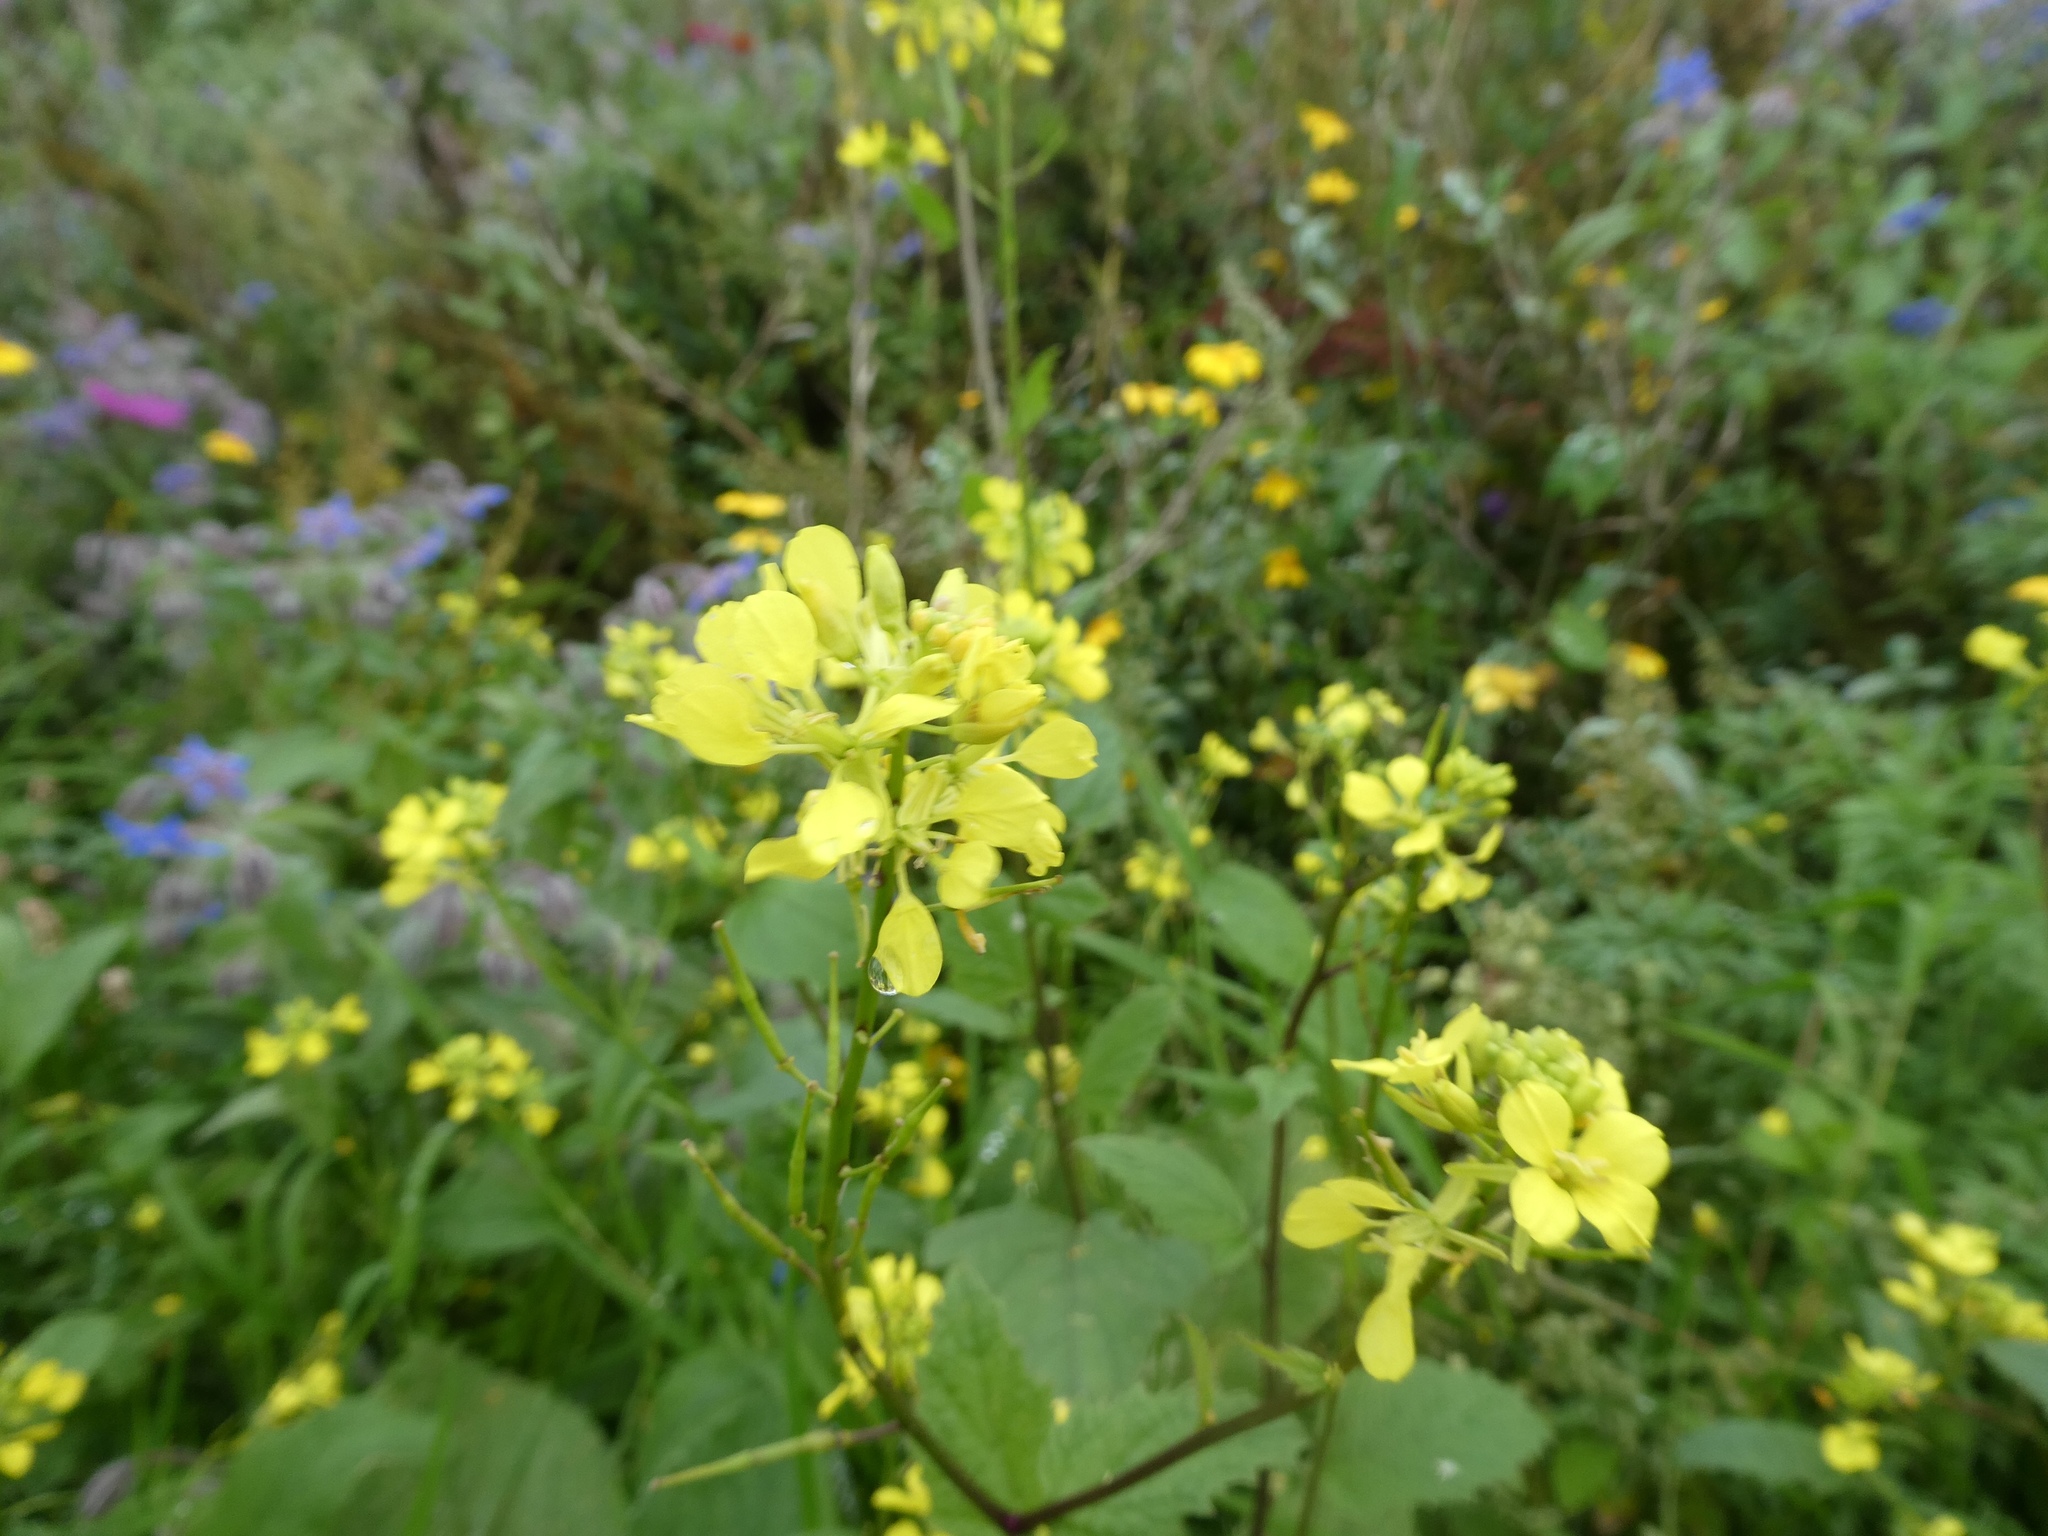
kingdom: Plantae
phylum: Tracheophyta
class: Magnoliopsida
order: Brassicales
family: Brassicaceae
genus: Sinapis
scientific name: Sinapis arvensis
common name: Charlock
